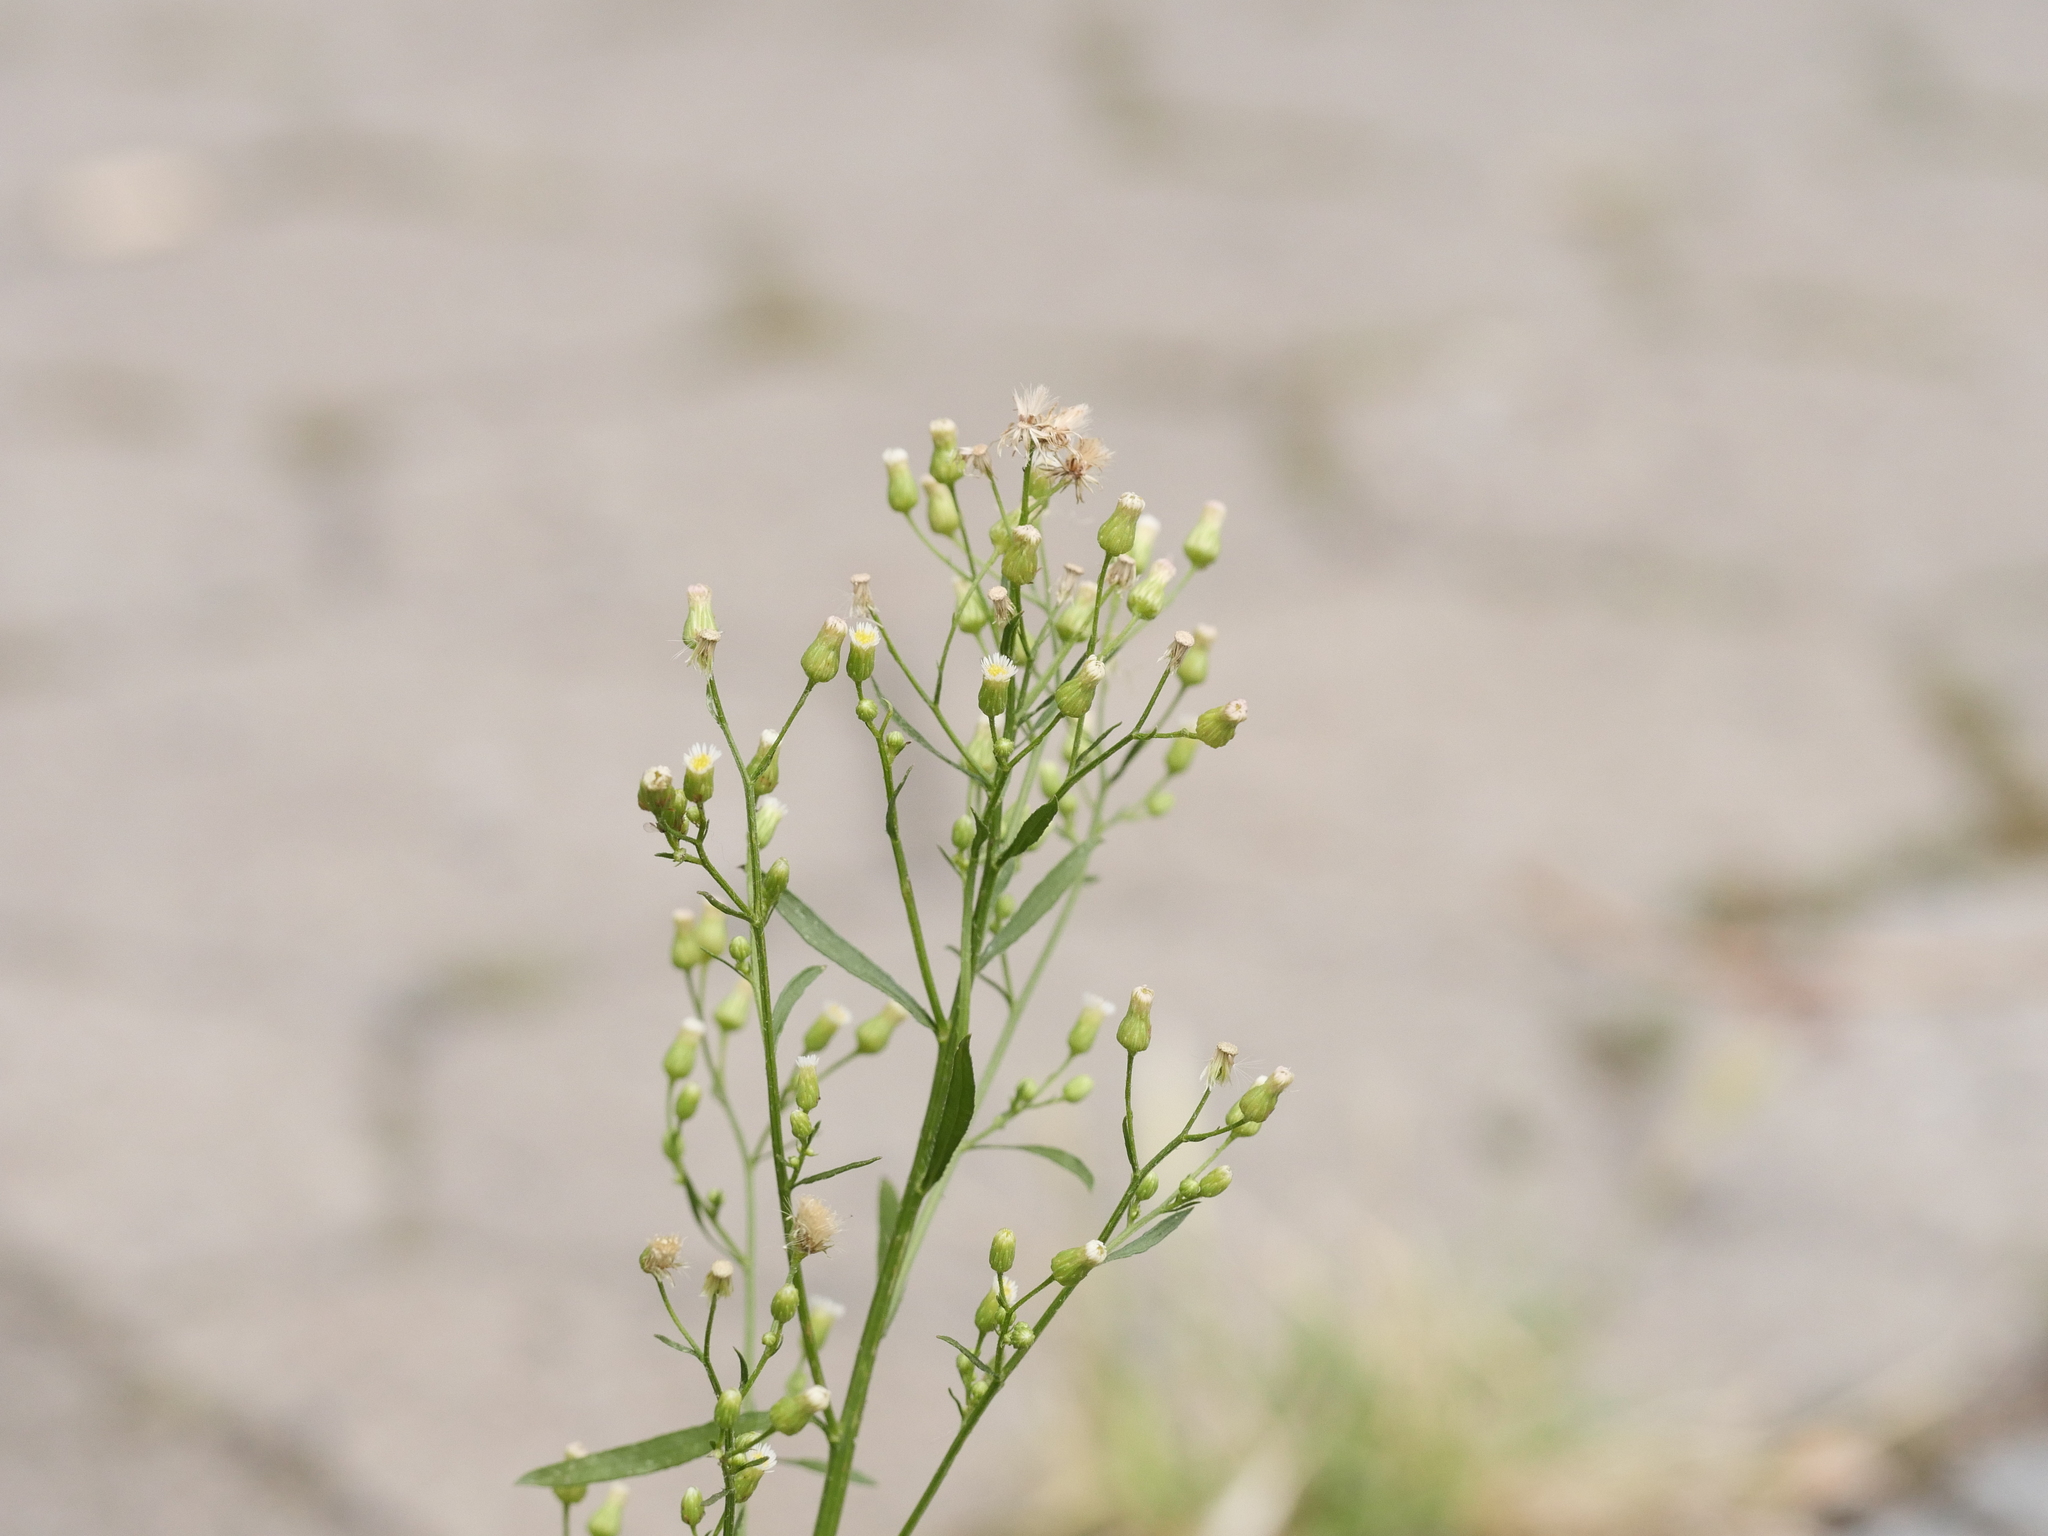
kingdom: Plantae
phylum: Tracheophyta
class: Magnoliopsida
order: Asterales
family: Asteraceae
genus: Erigeron
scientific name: Erigeron canadensis
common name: Canadian fleabane
